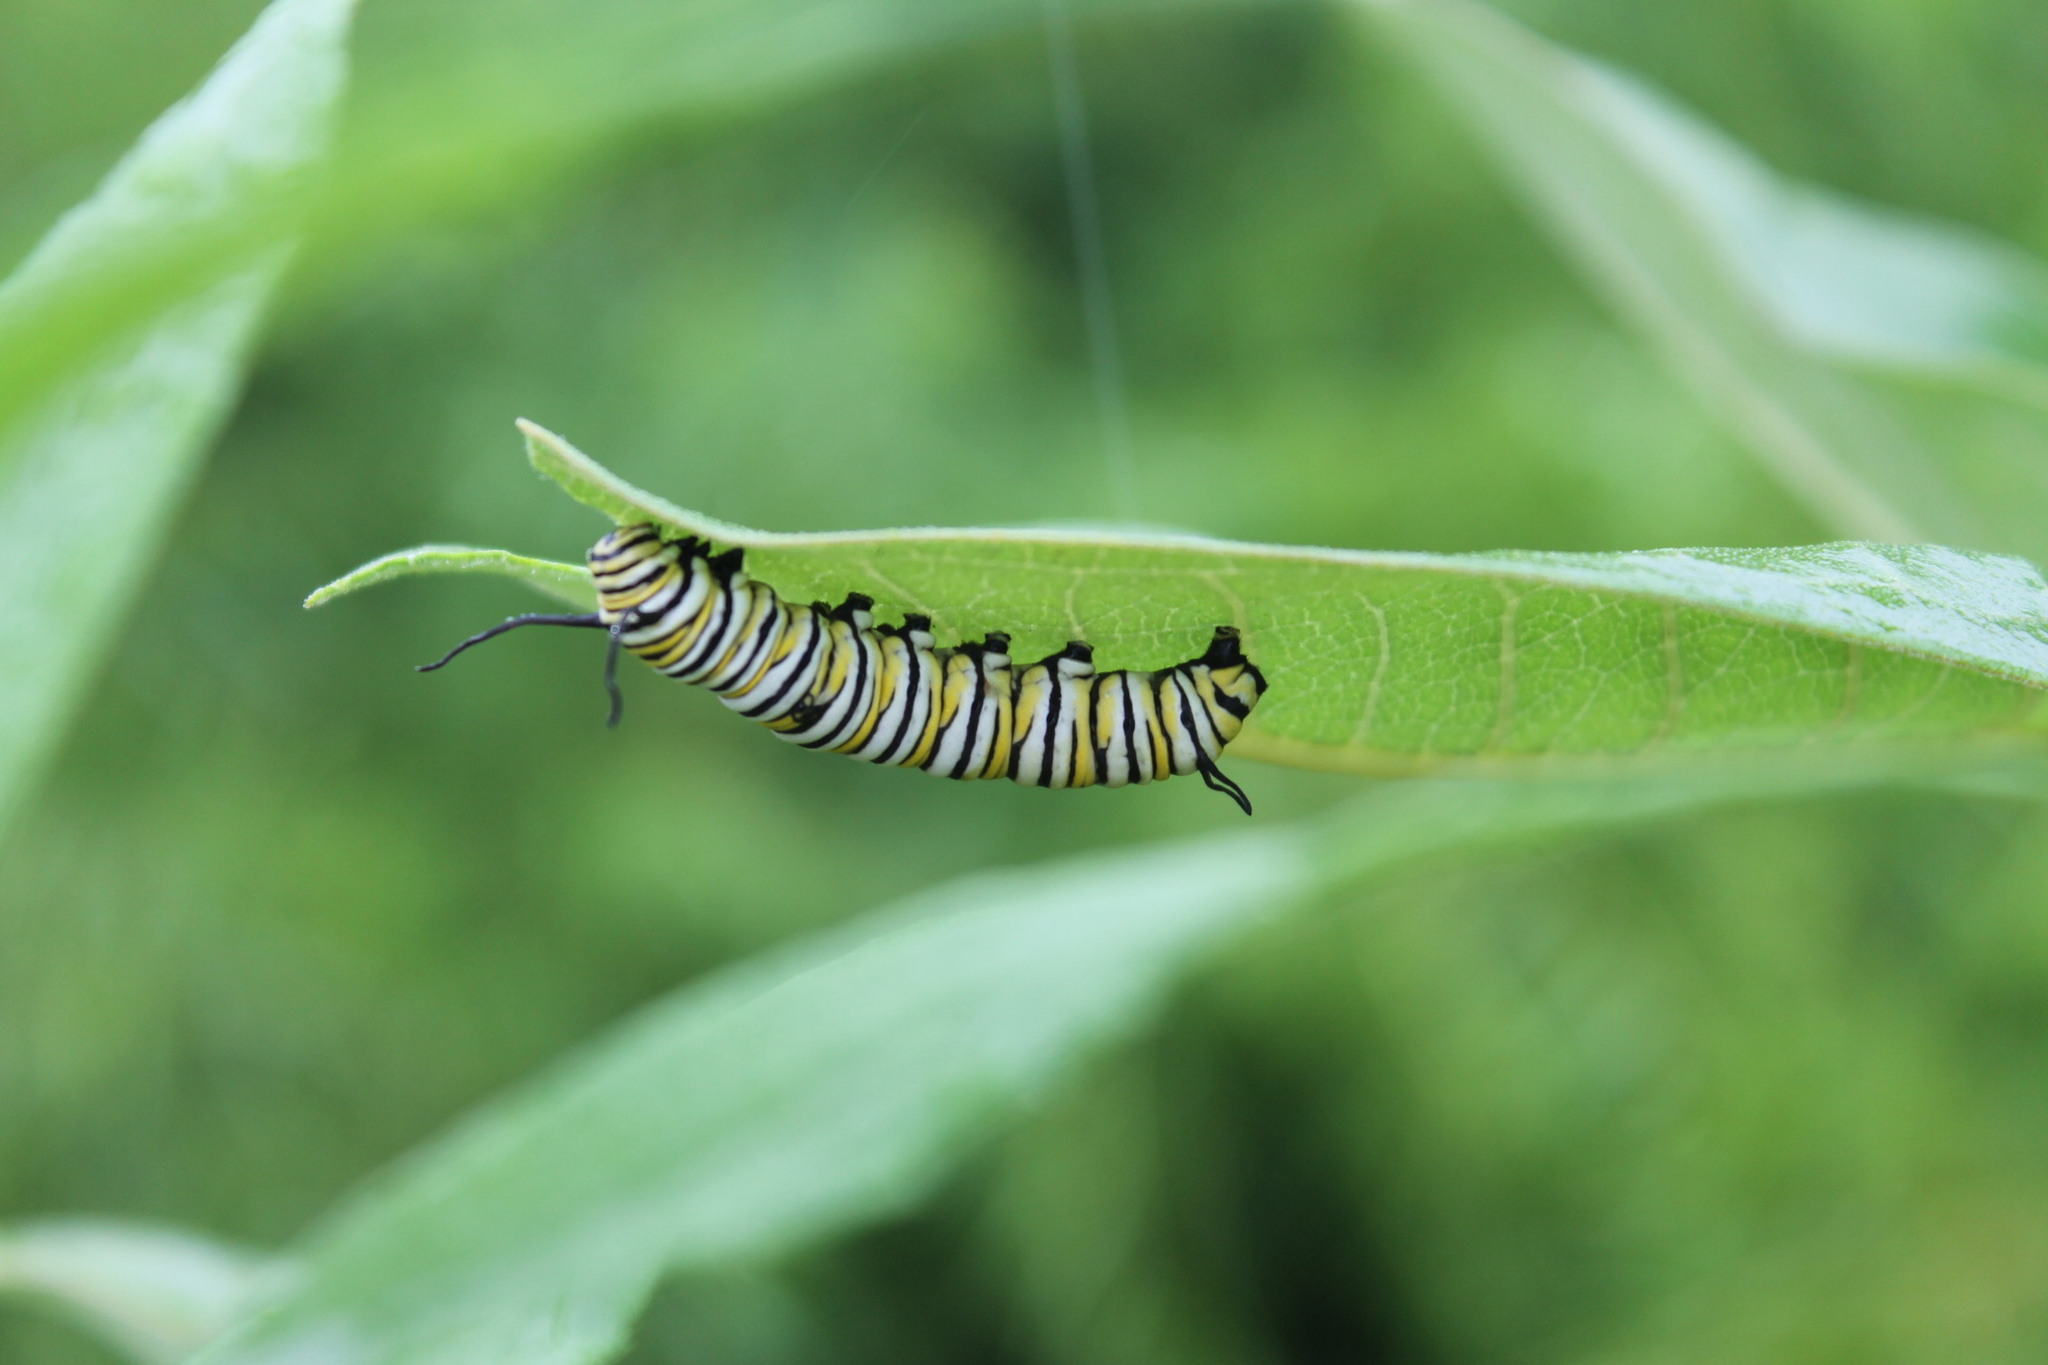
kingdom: Animalia
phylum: Arthropoda
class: Insecta
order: Lepidoptera
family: Nymphalidae
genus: Danaus
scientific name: Danaus plexippus
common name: Monarch
